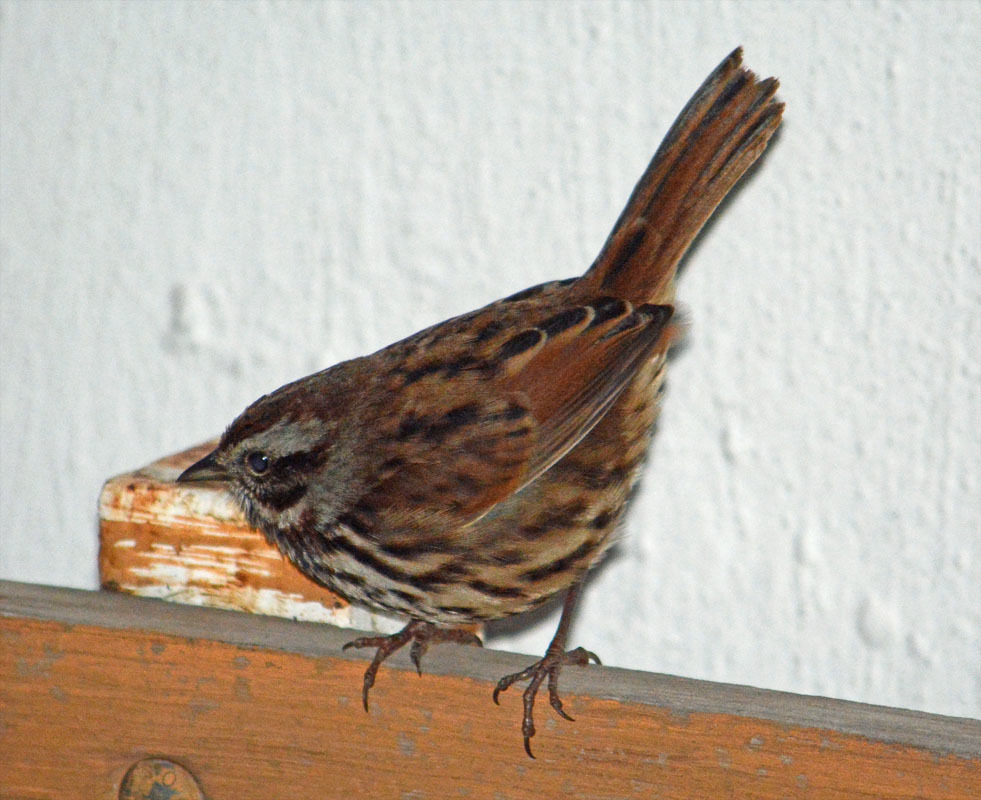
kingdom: Animalia
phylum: Chordata
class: Aves
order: Passeriformes
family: Passerellidae
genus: Melospiza
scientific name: Melospiza melodia
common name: Song sparrow
